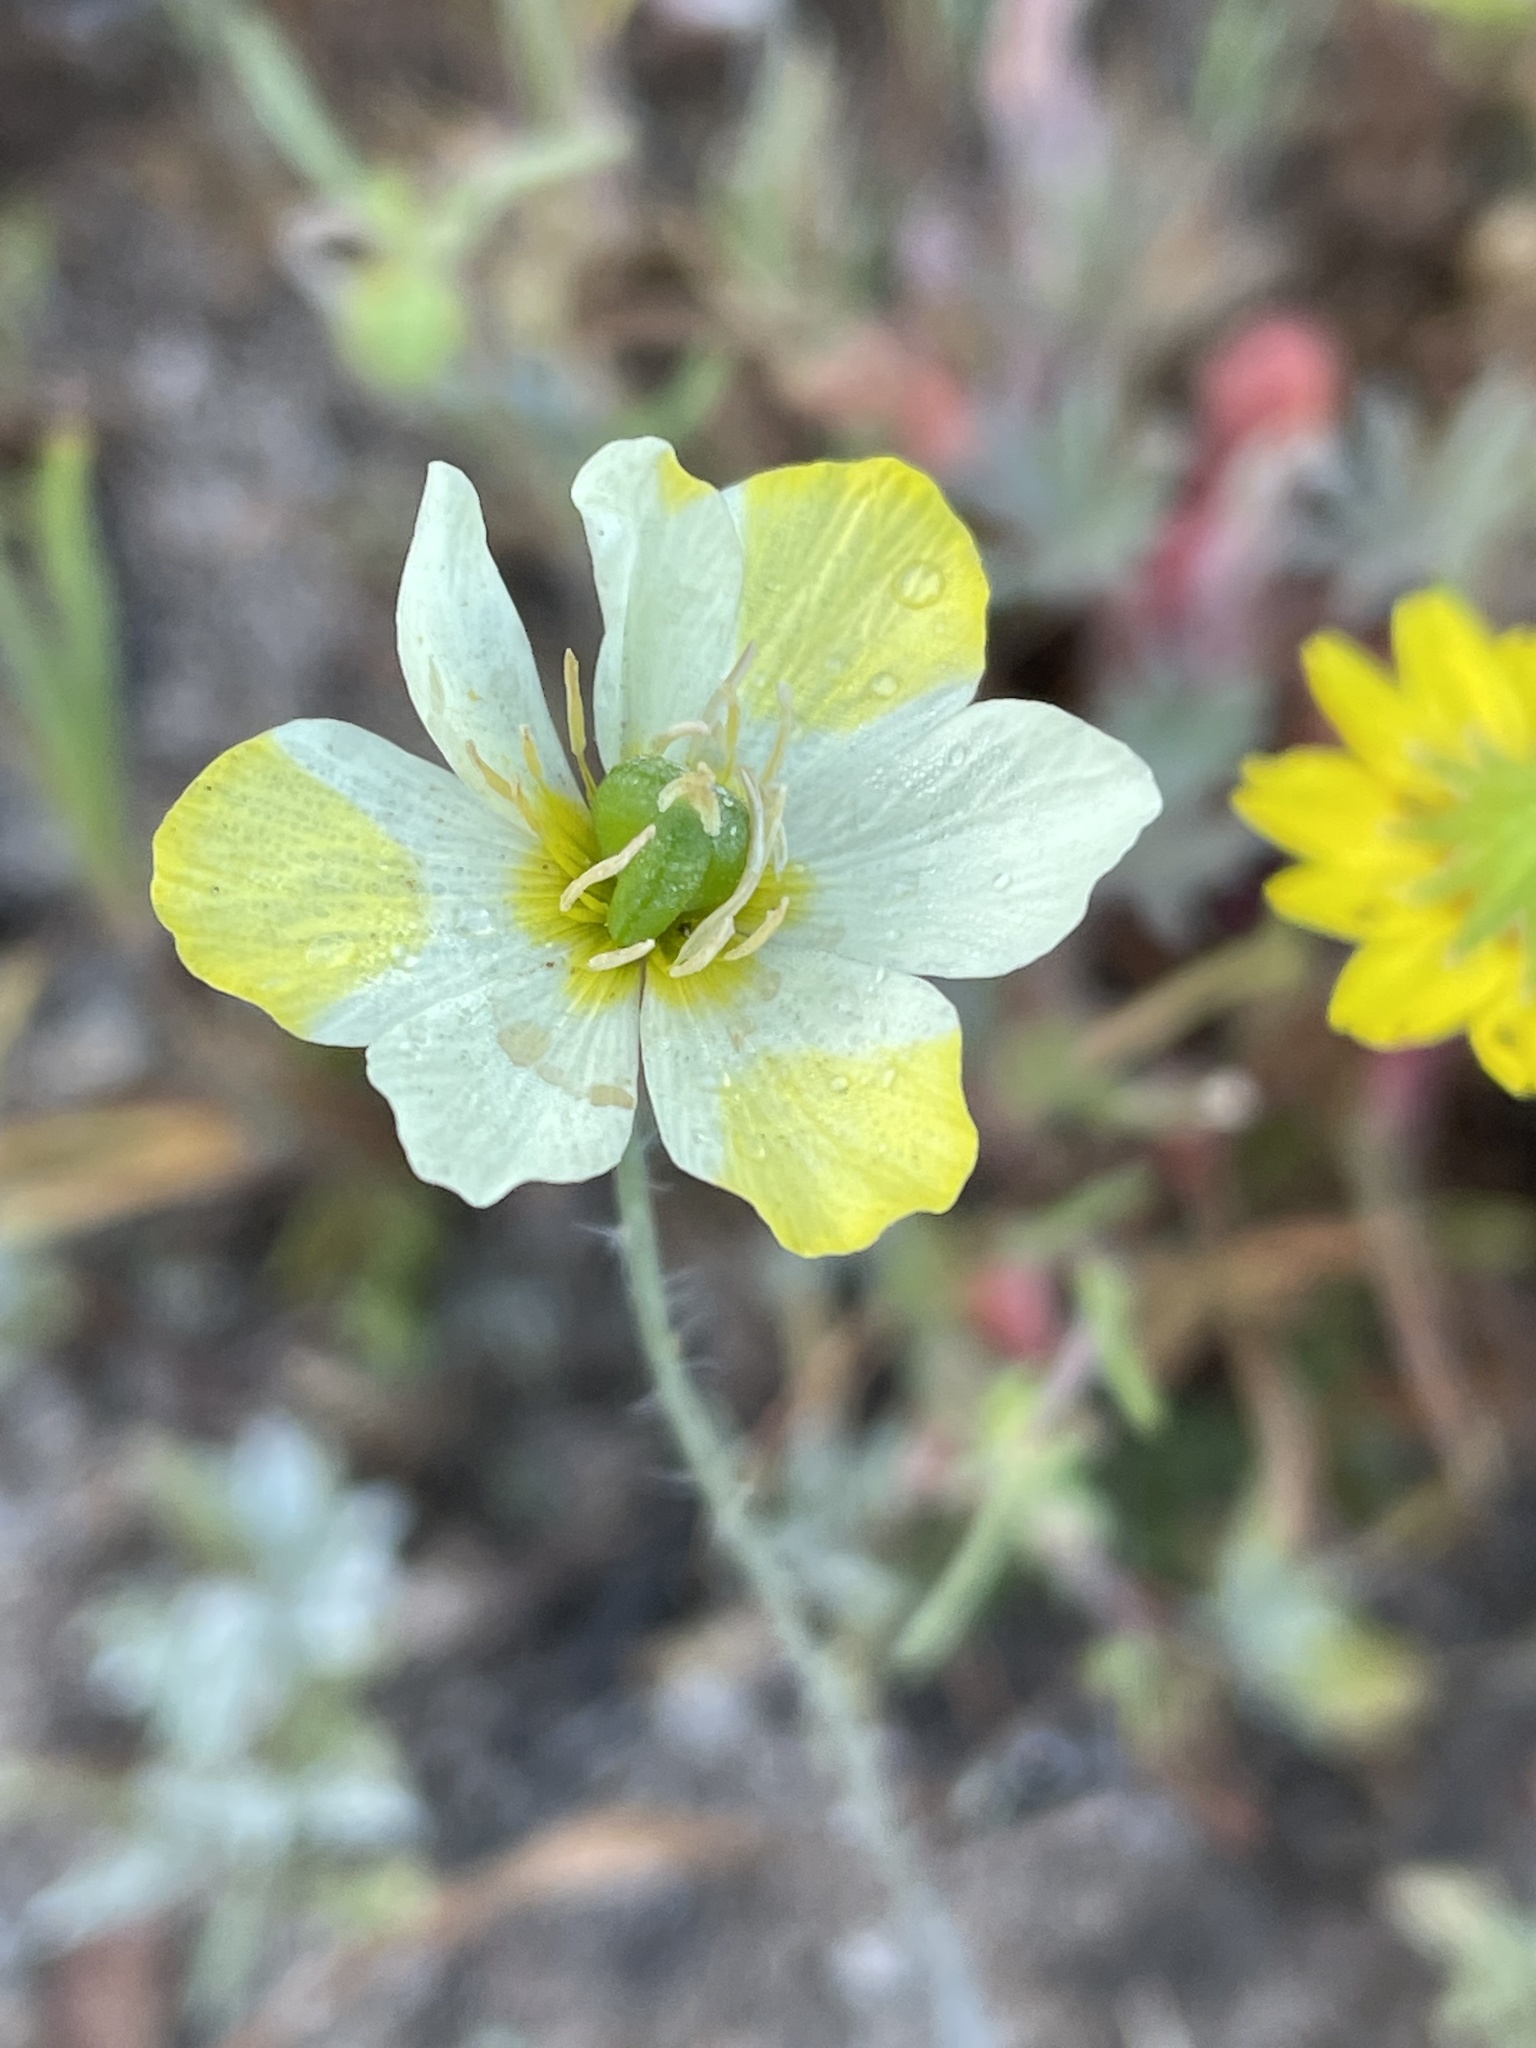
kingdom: Plantae
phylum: Tracheophyta
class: Magnoliopsida
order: Ranunculales
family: Papaveraceae
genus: Platystigma
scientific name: Platystigma lineare
